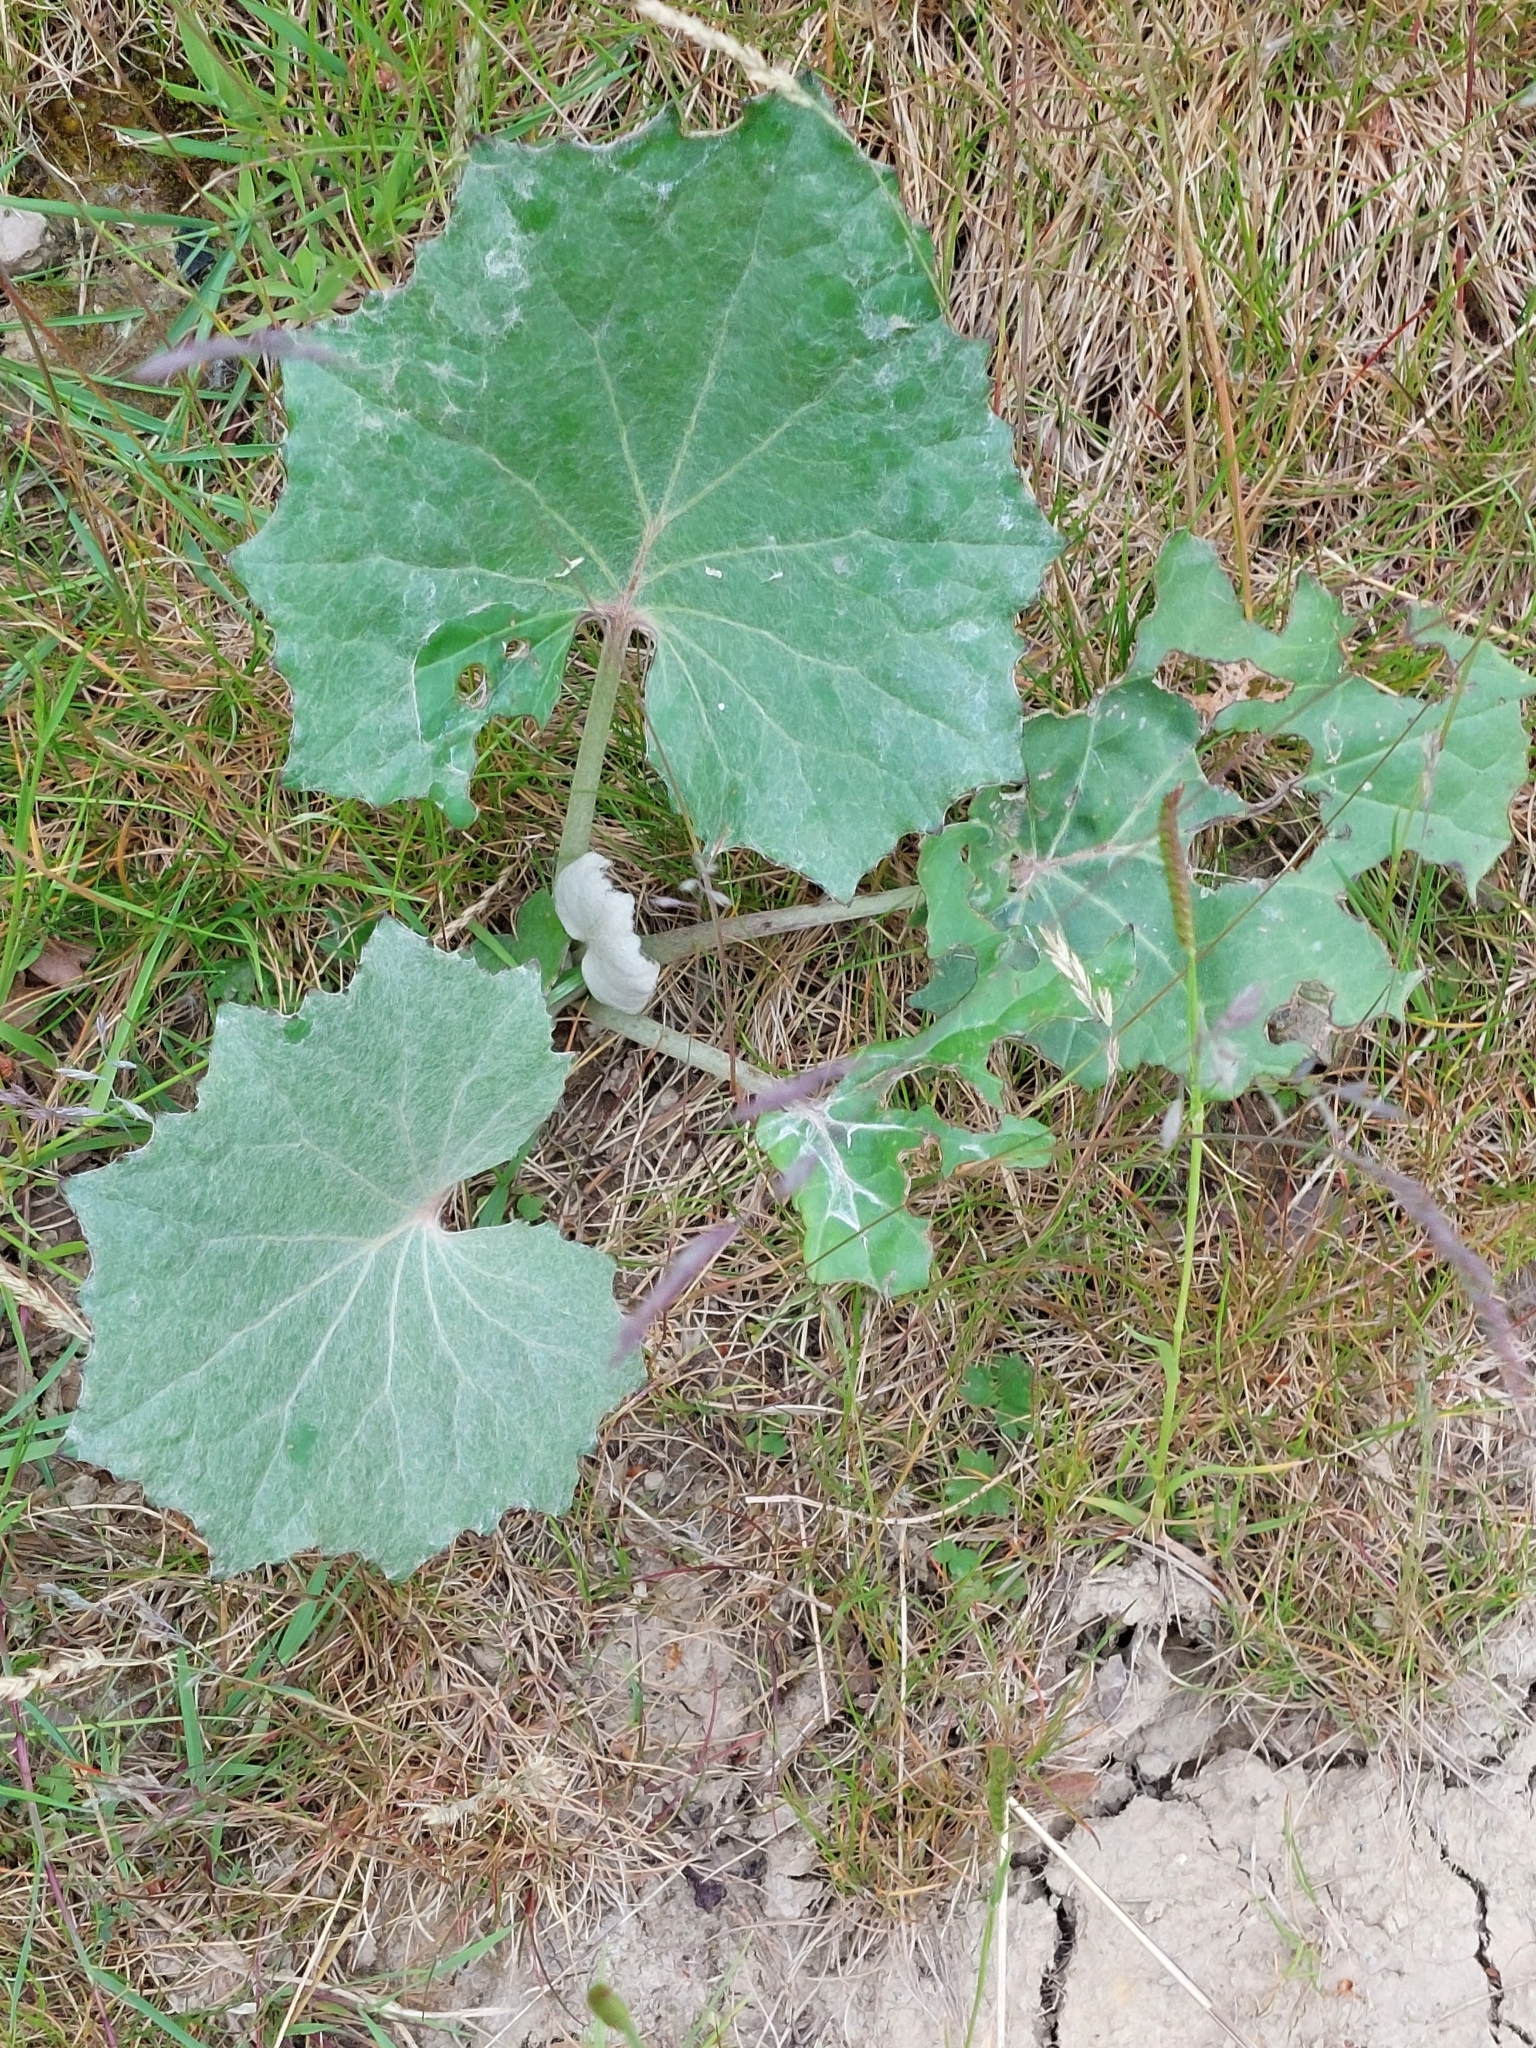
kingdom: Plantae
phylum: Tracheophyta
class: Magnoliopsida
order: Asterales
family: Asteraceae
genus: Tussilago
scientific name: Tussilago farfara
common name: Coltsfoot
